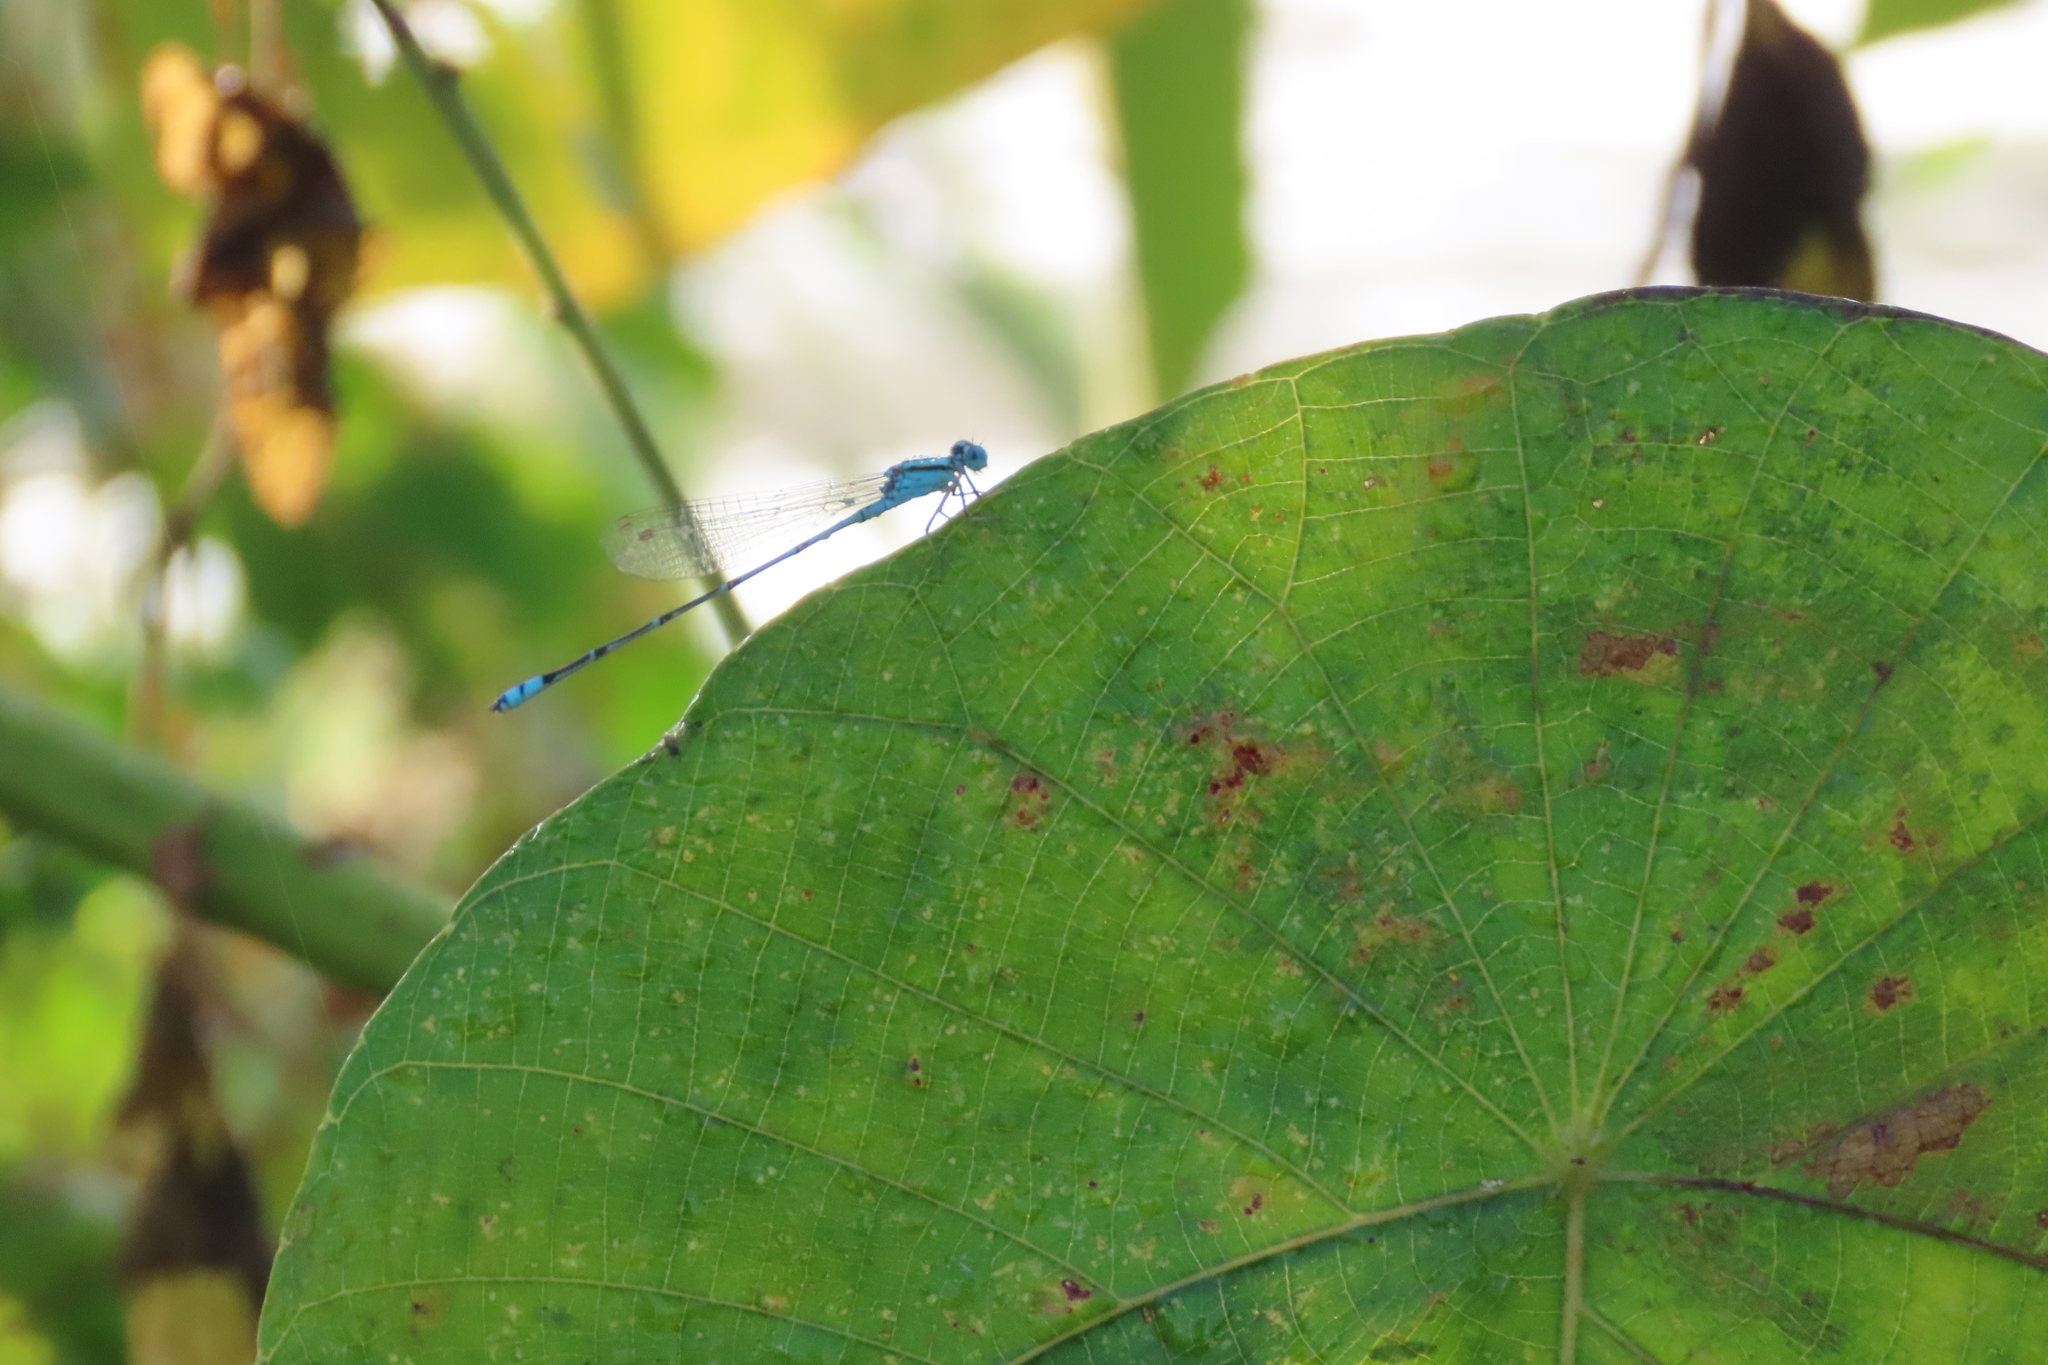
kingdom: Animalia
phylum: Arthropoda
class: Insecta
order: Odonata
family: Coenagrionidae
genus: Pseudagrion
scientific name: Pseudagrion microcephalum
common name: Blue riverdamsel
